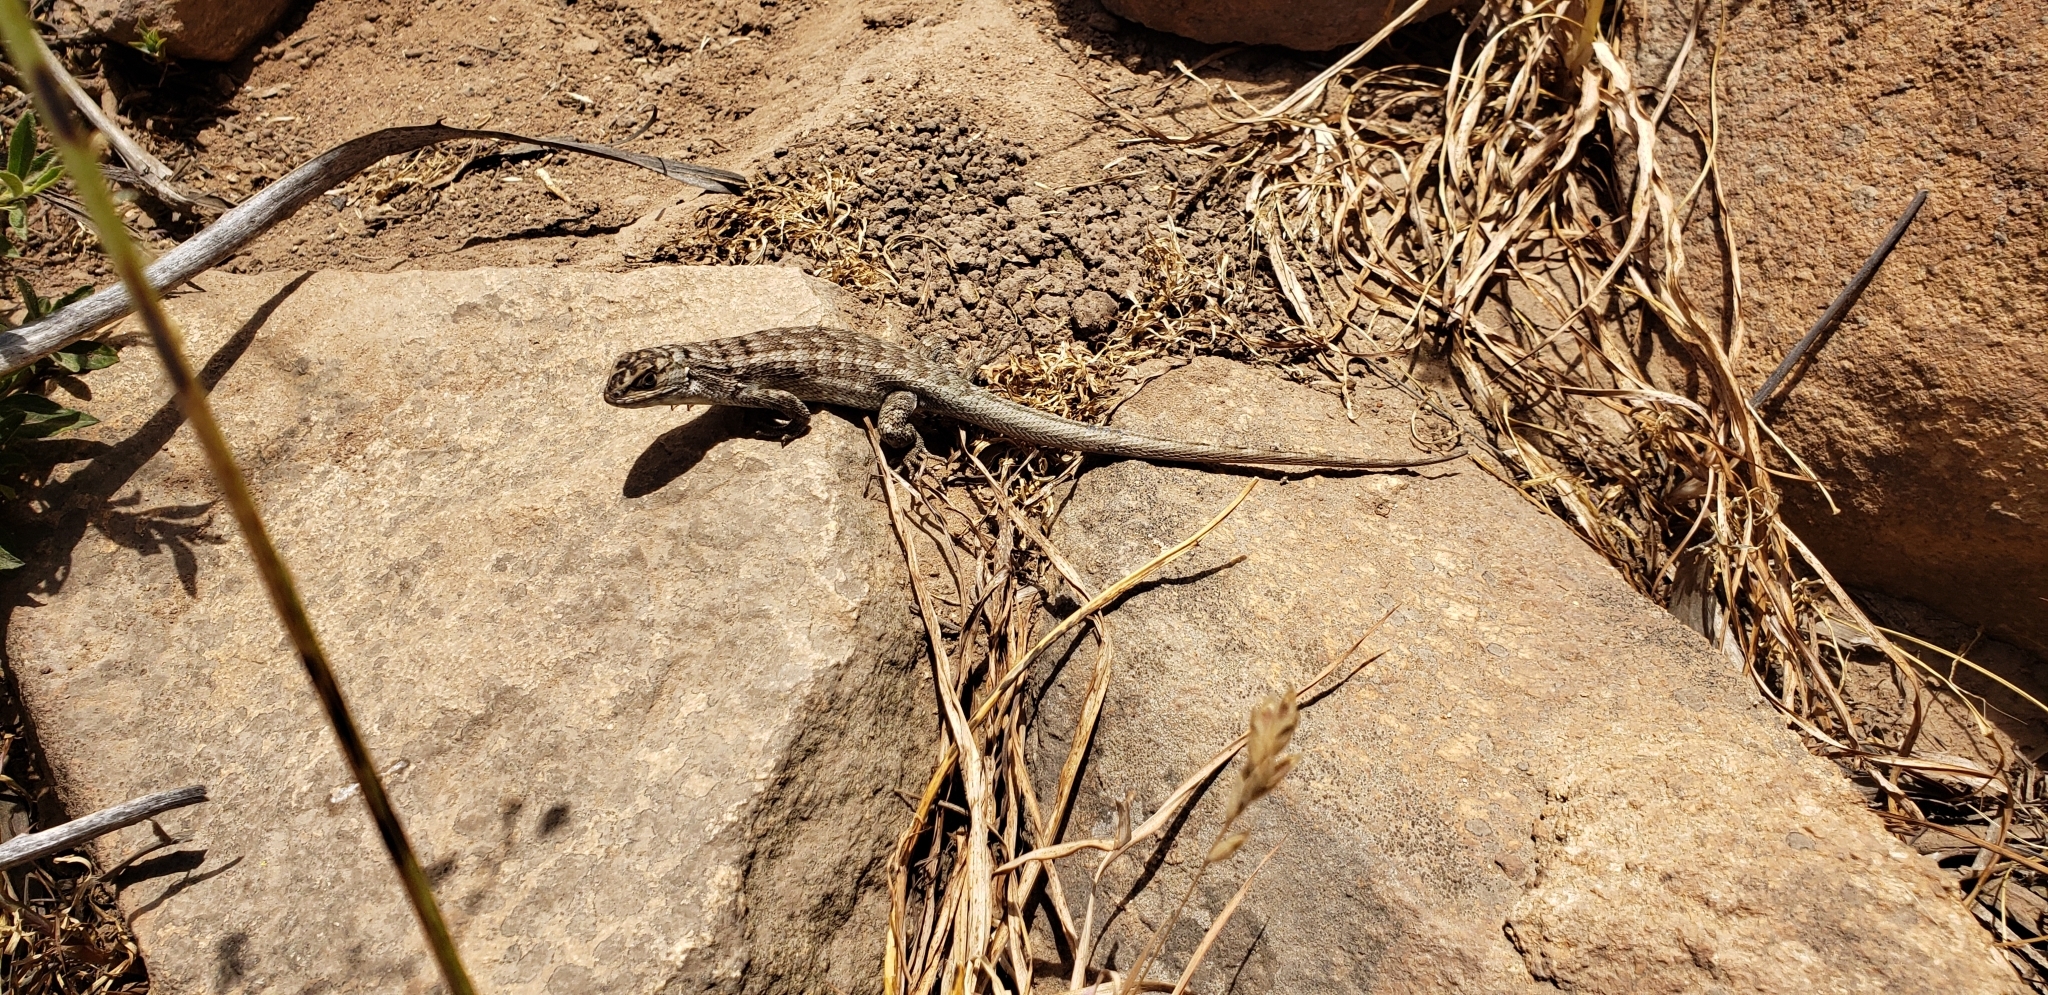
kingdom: Animalia
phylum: Chordata
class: Squamata
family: Liolaemidae
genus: Liolaemus
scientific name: Liolaemus nitidus
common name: Shining tree iguana
